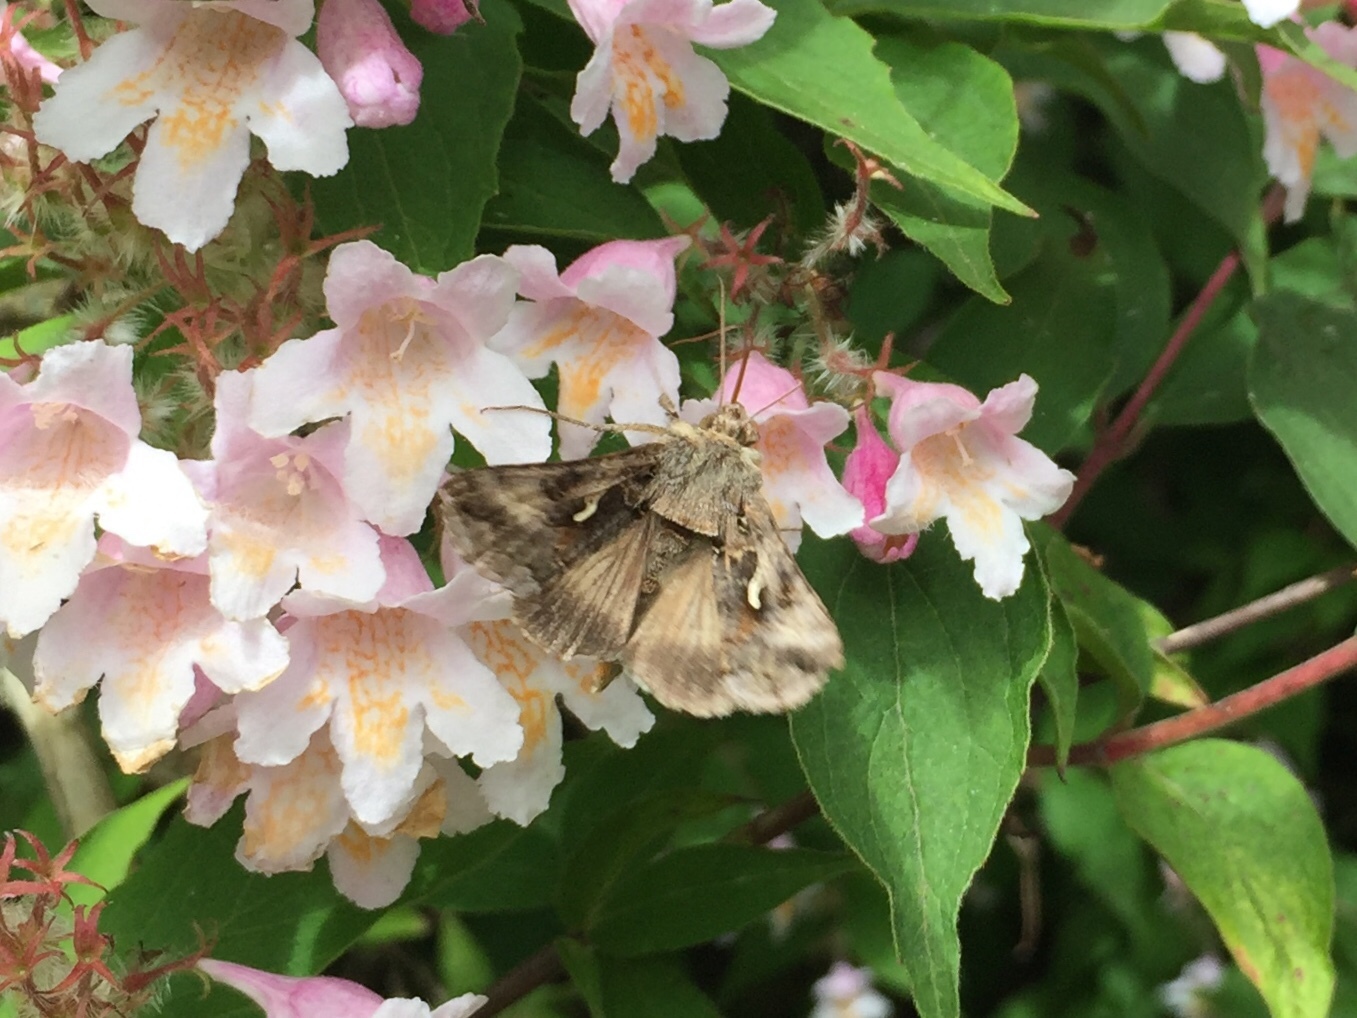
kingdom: Animalia
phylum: Arthropoda
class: Insecta
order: Lepidoptera
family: Noctuidae
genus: Autographa
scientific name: Autographa gamma
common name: Silver y
